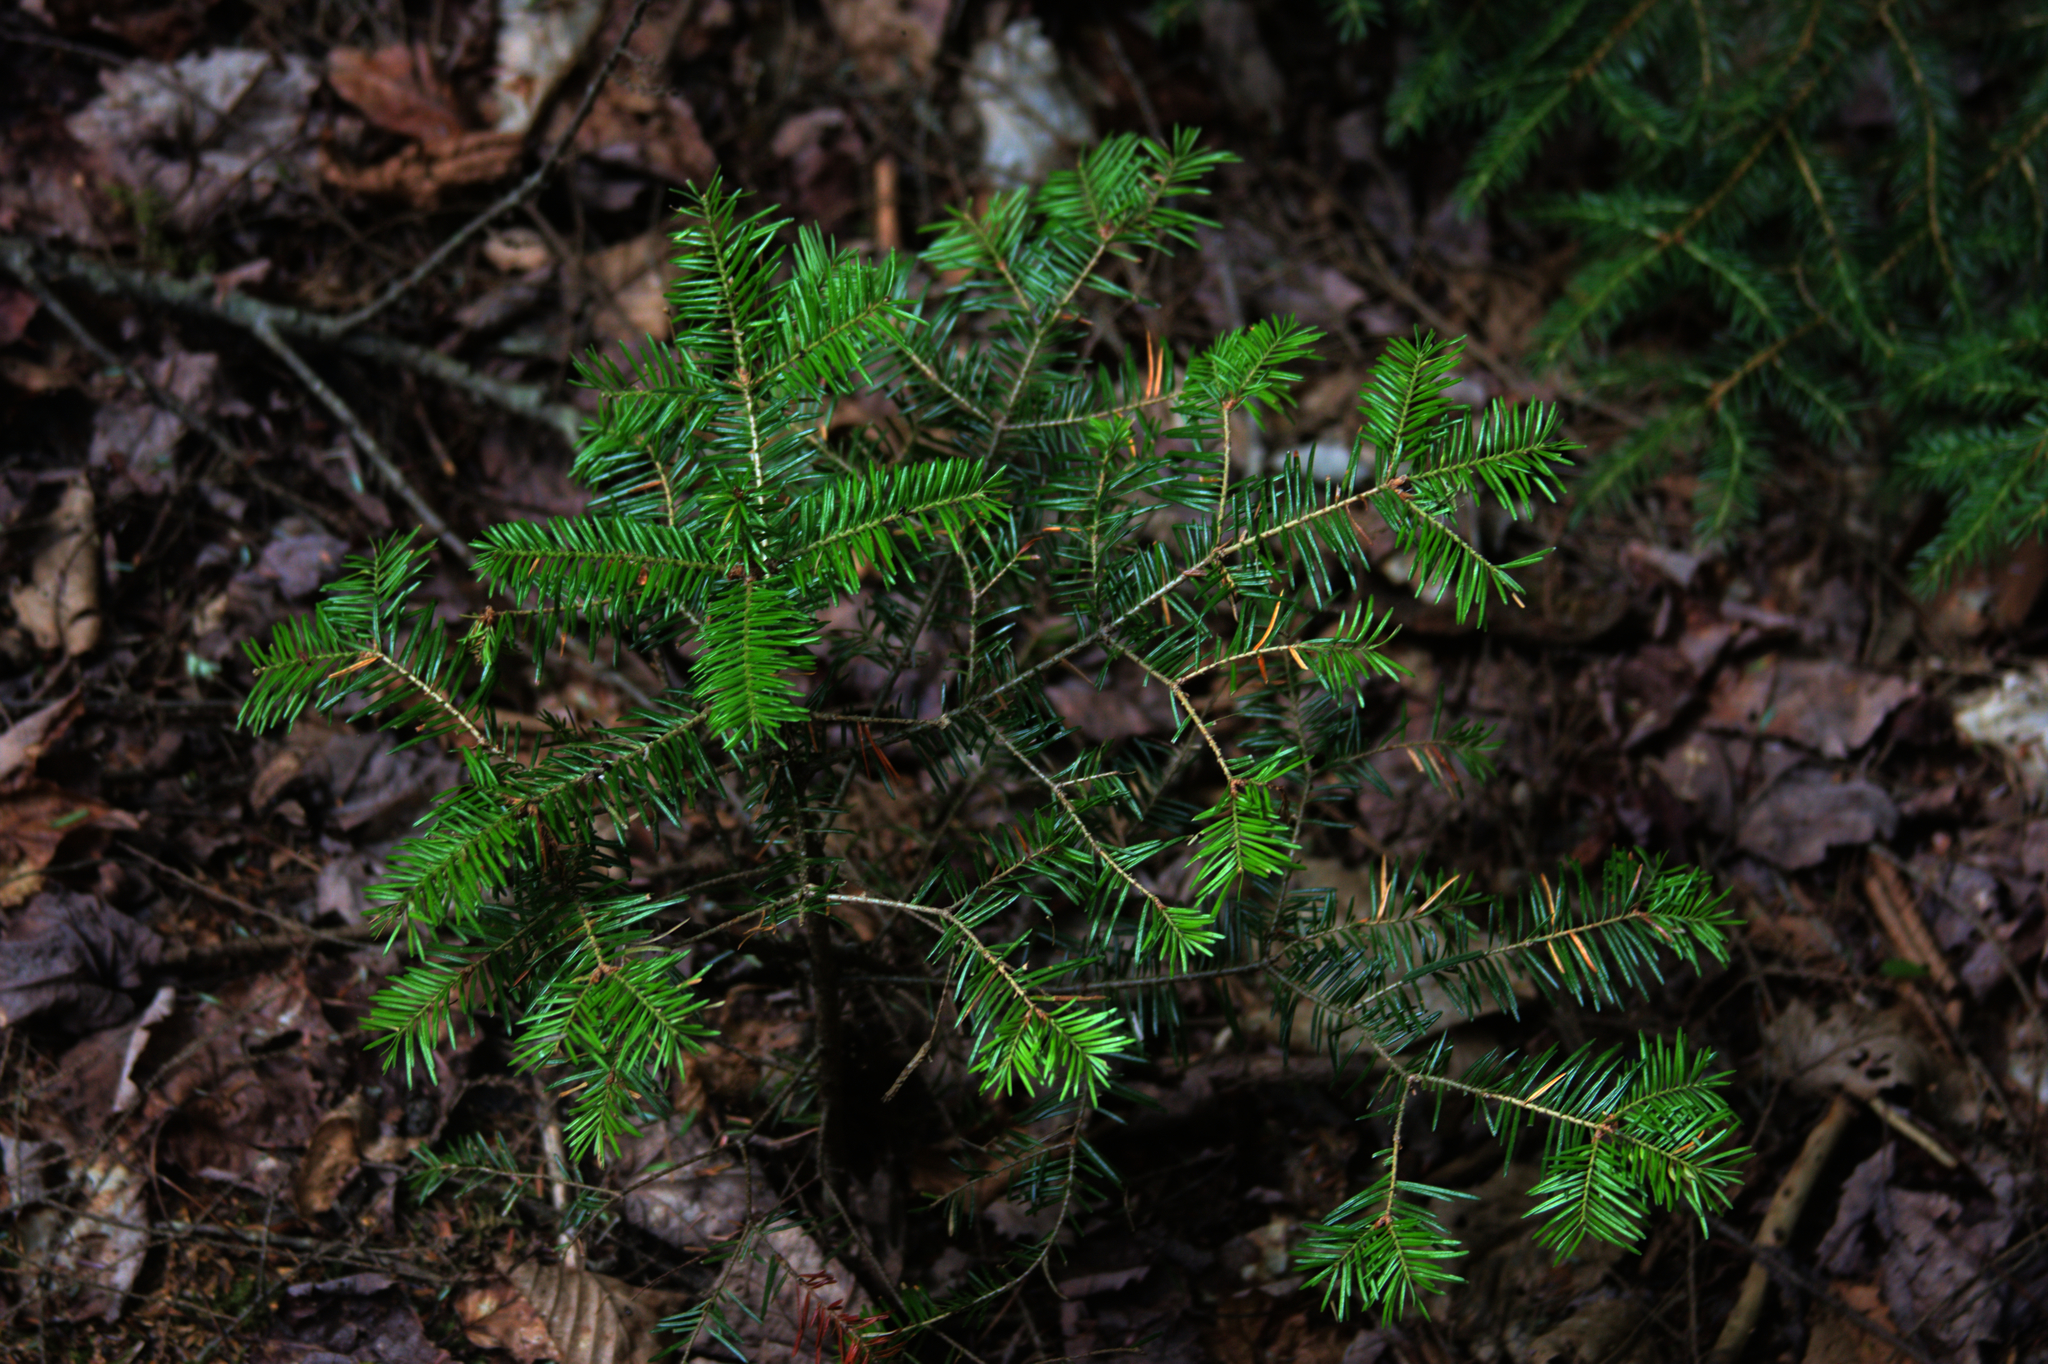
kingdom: Plantae
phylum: Tracheophyta
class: Pinopsida
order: Pinales
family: Pinaceae
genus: Abies
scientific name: Abies balsamea
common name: Balsam fir
